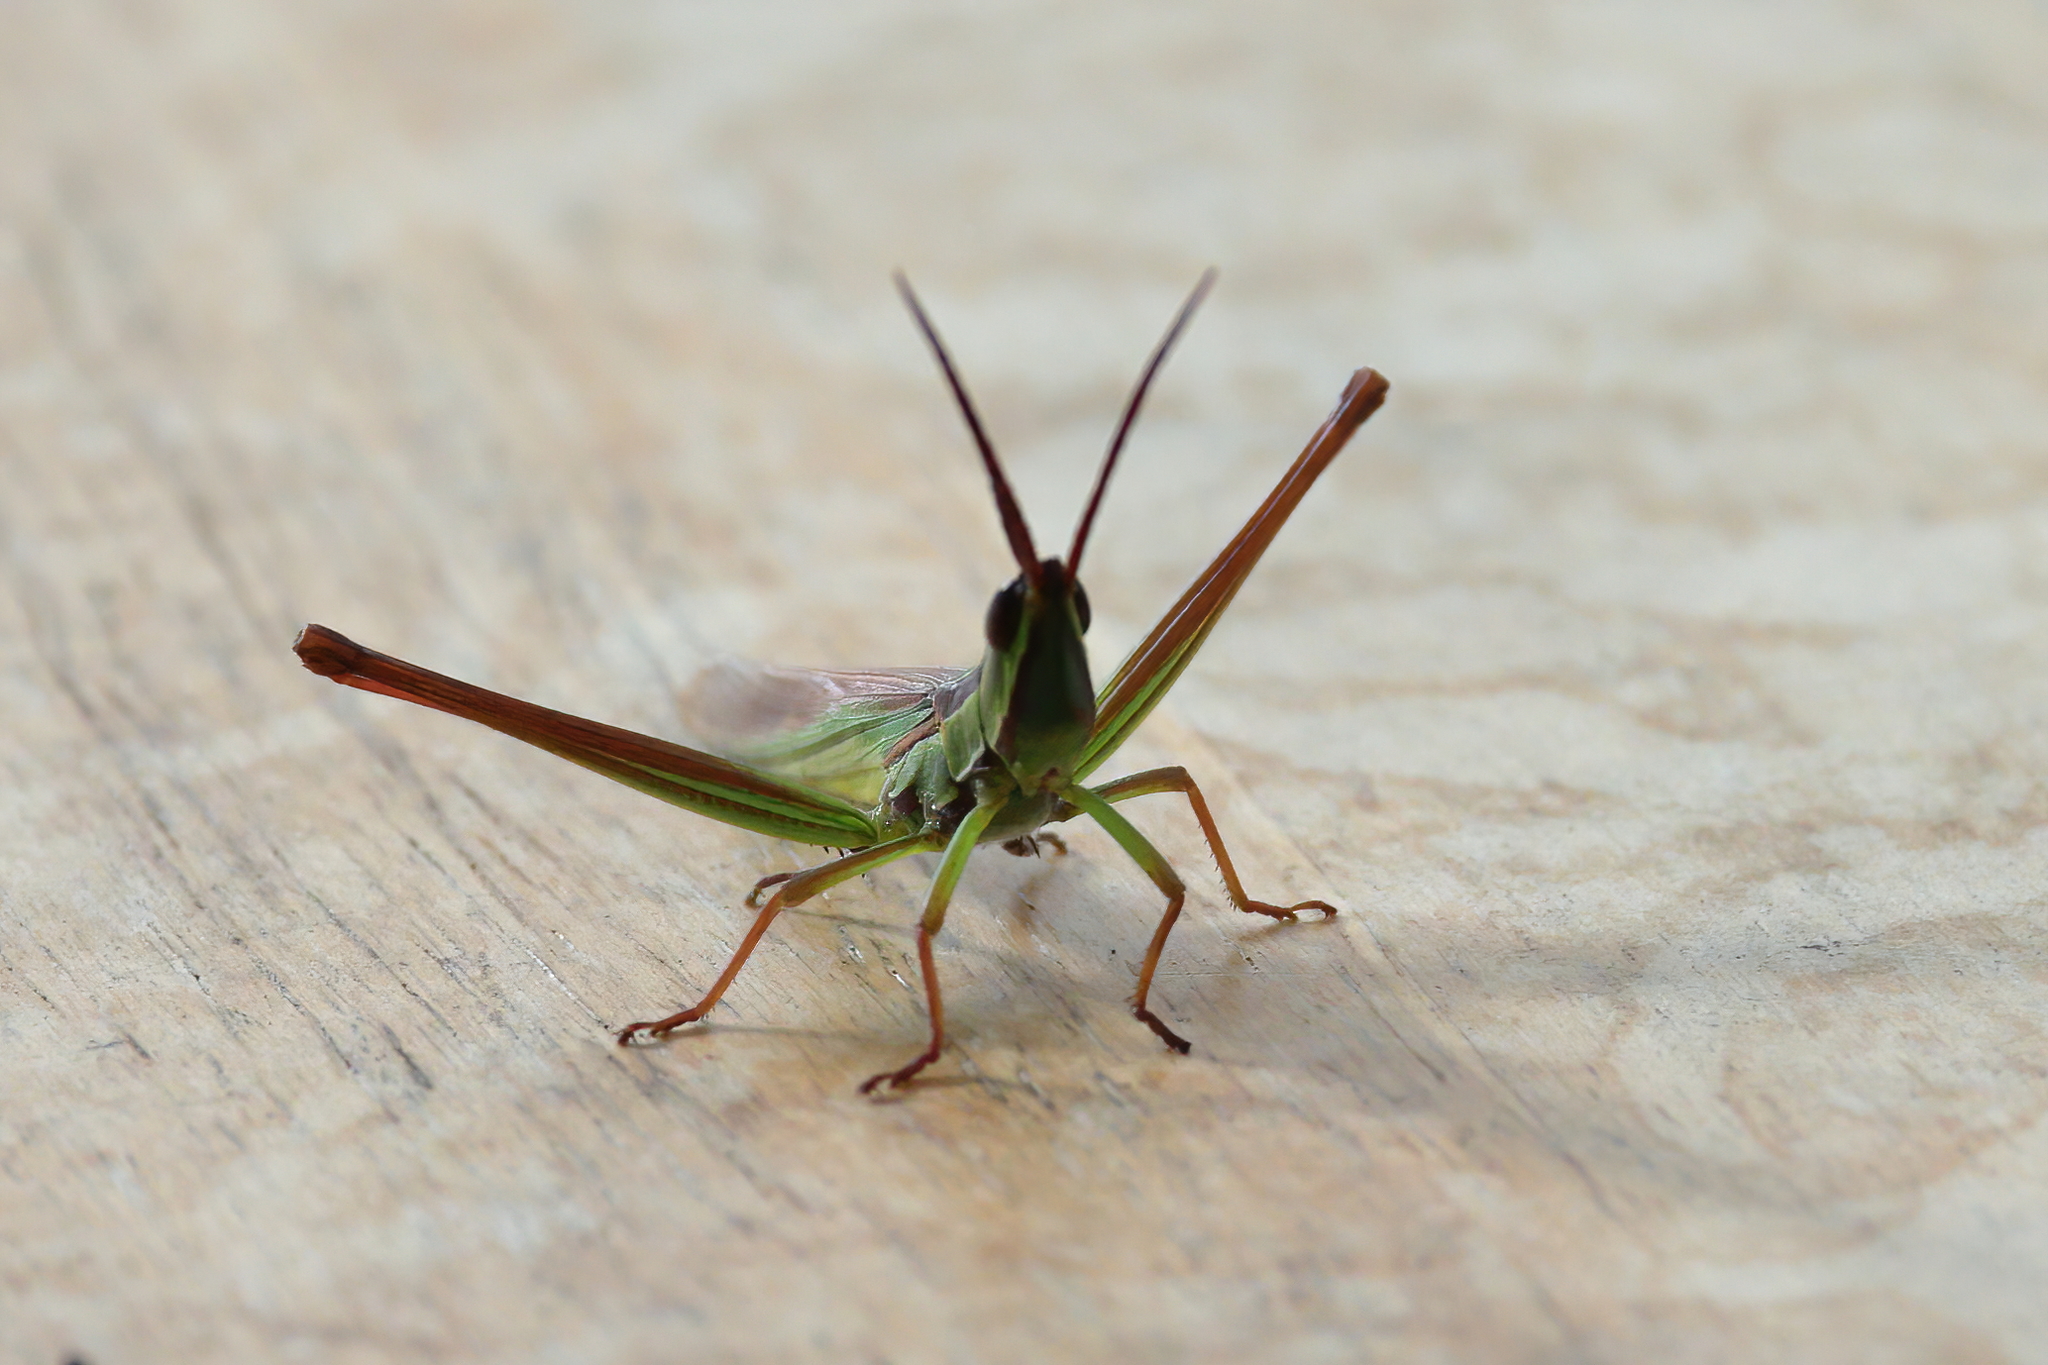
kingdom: Animalia
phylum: Arthropoda
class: Insecta
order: Orthoptera
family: Acrididae
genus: Mermiria
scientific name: Mermiria picta
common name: Lively mermiria grasshopper
